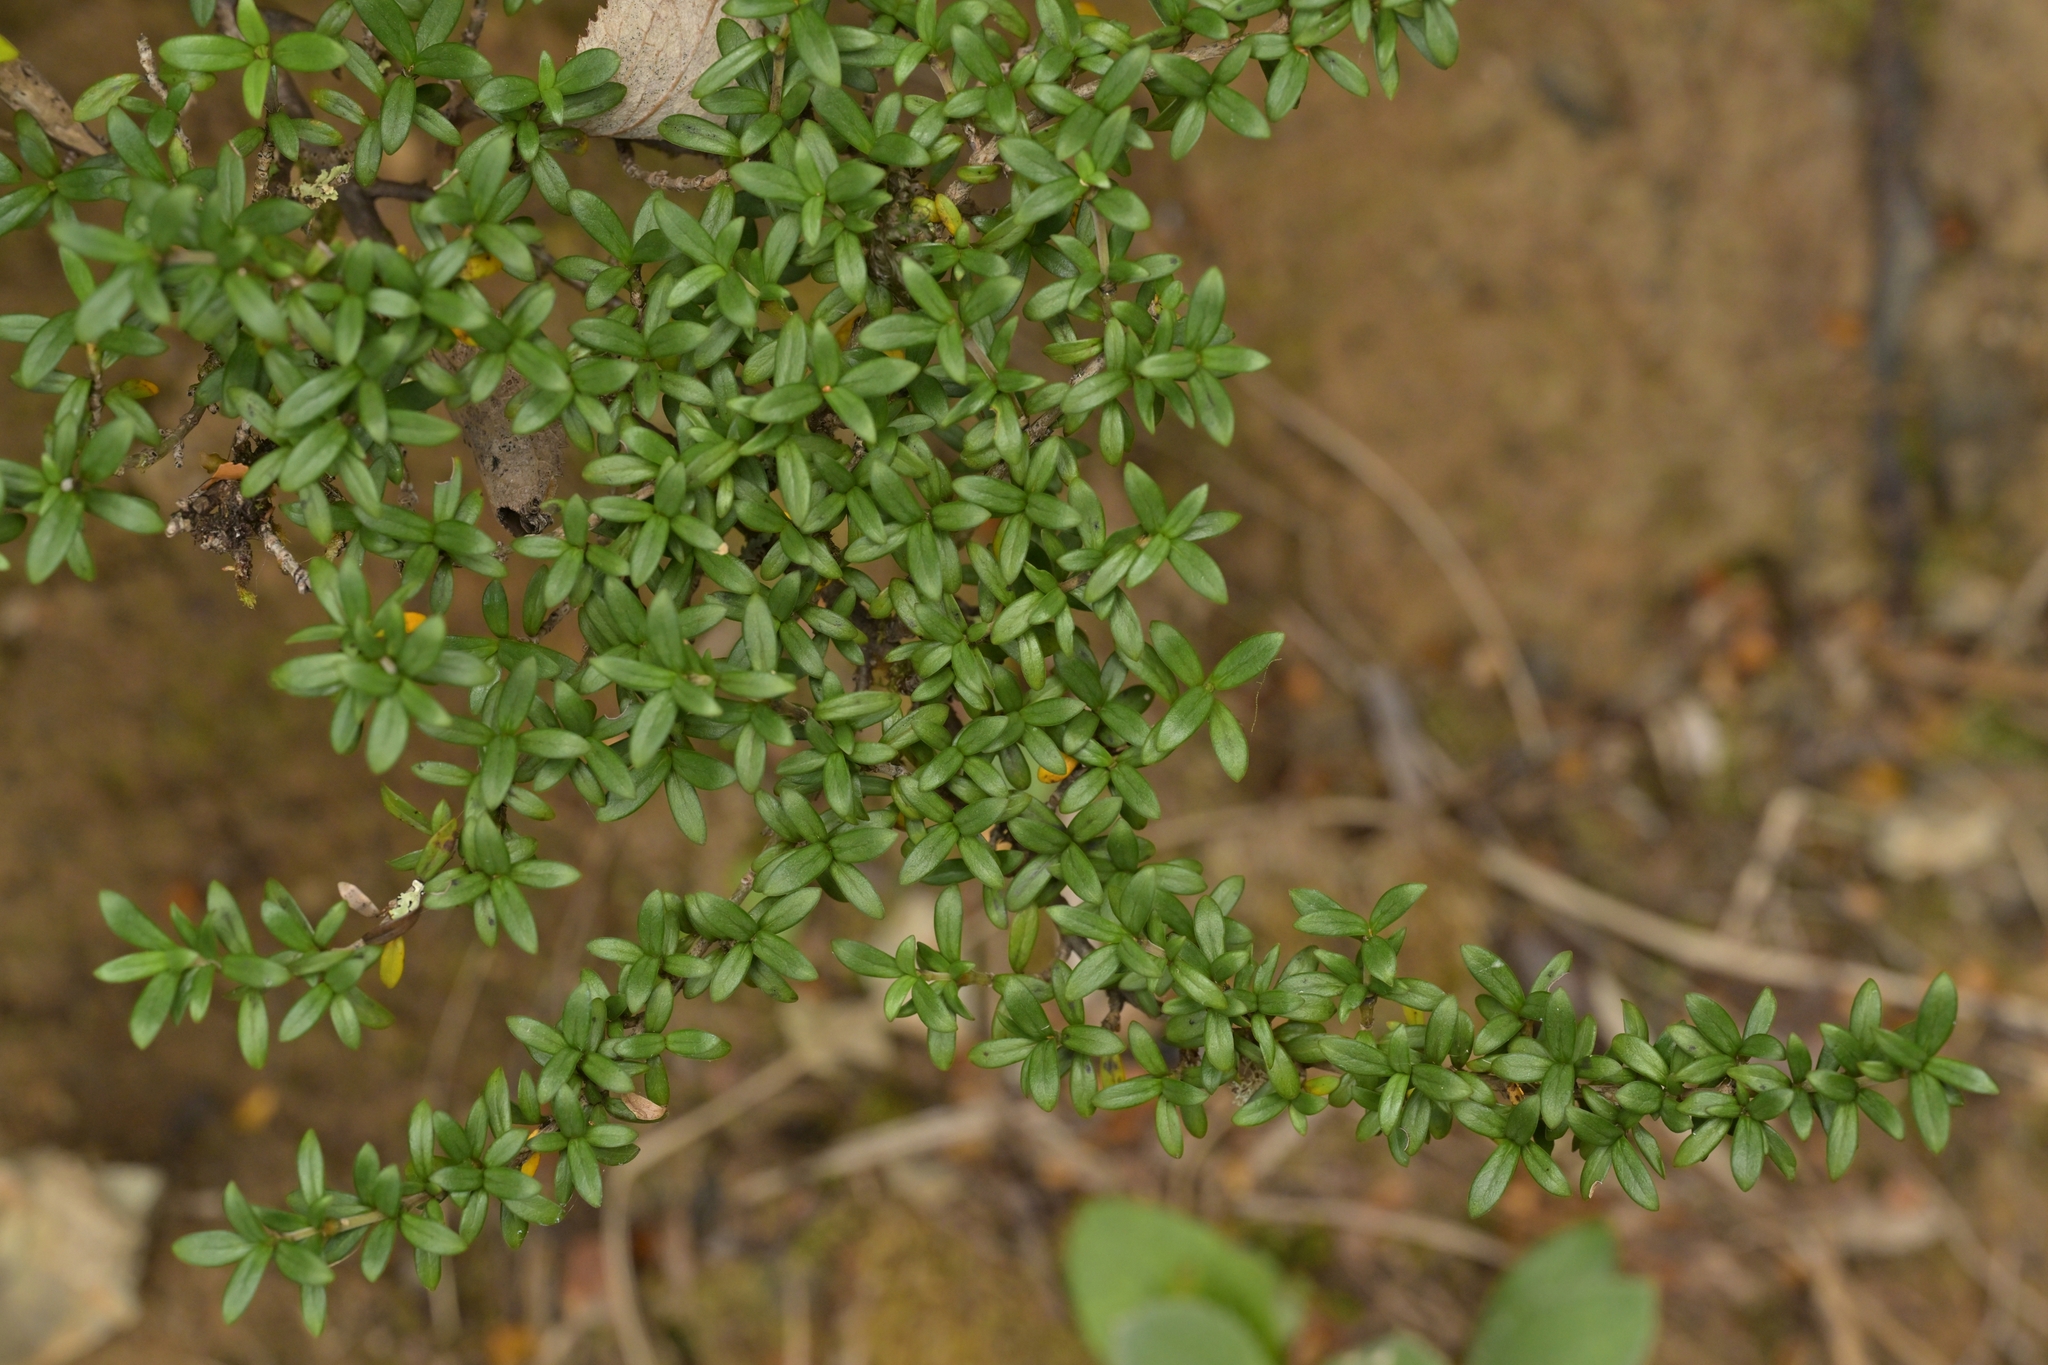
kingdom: Plantae
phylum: Tracheophyta
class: Magnoliopsida
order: Gentianales
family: Rubiaceae
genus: Coprosma
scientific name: Coprosma pseudocuneata
